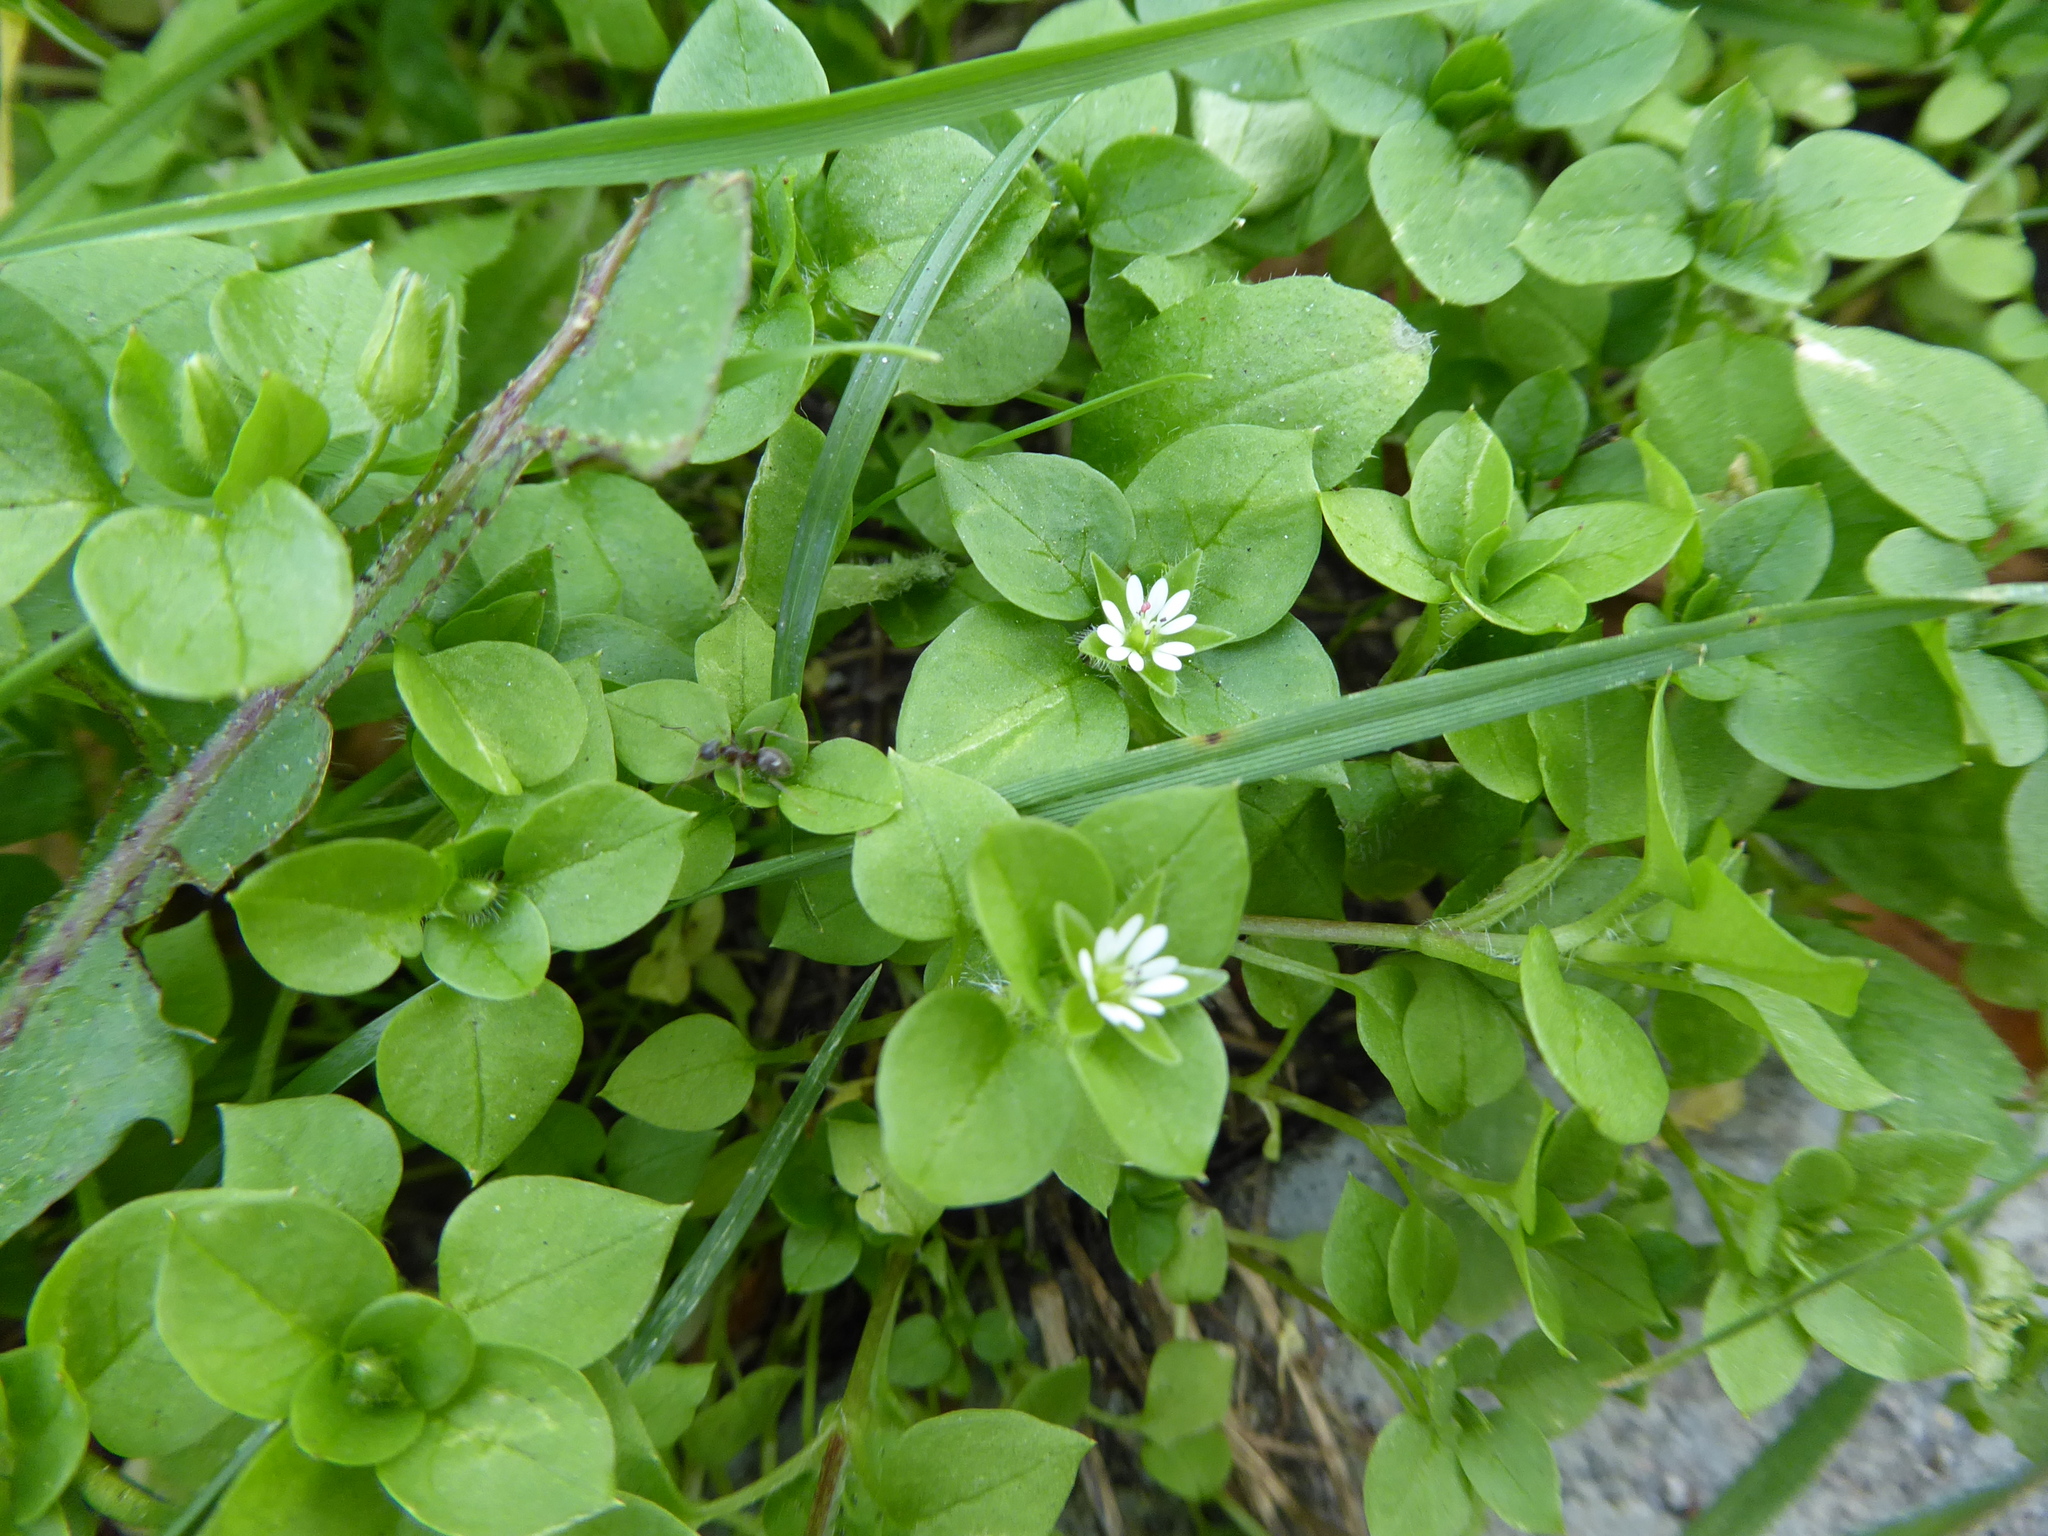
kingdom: Plantae
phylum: Tracheophyta
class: Magnoliopsida
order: Caryophyllales
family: Caryophyllaceae
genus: Stellaria
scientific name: Stellaria media
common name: Common chickweed
